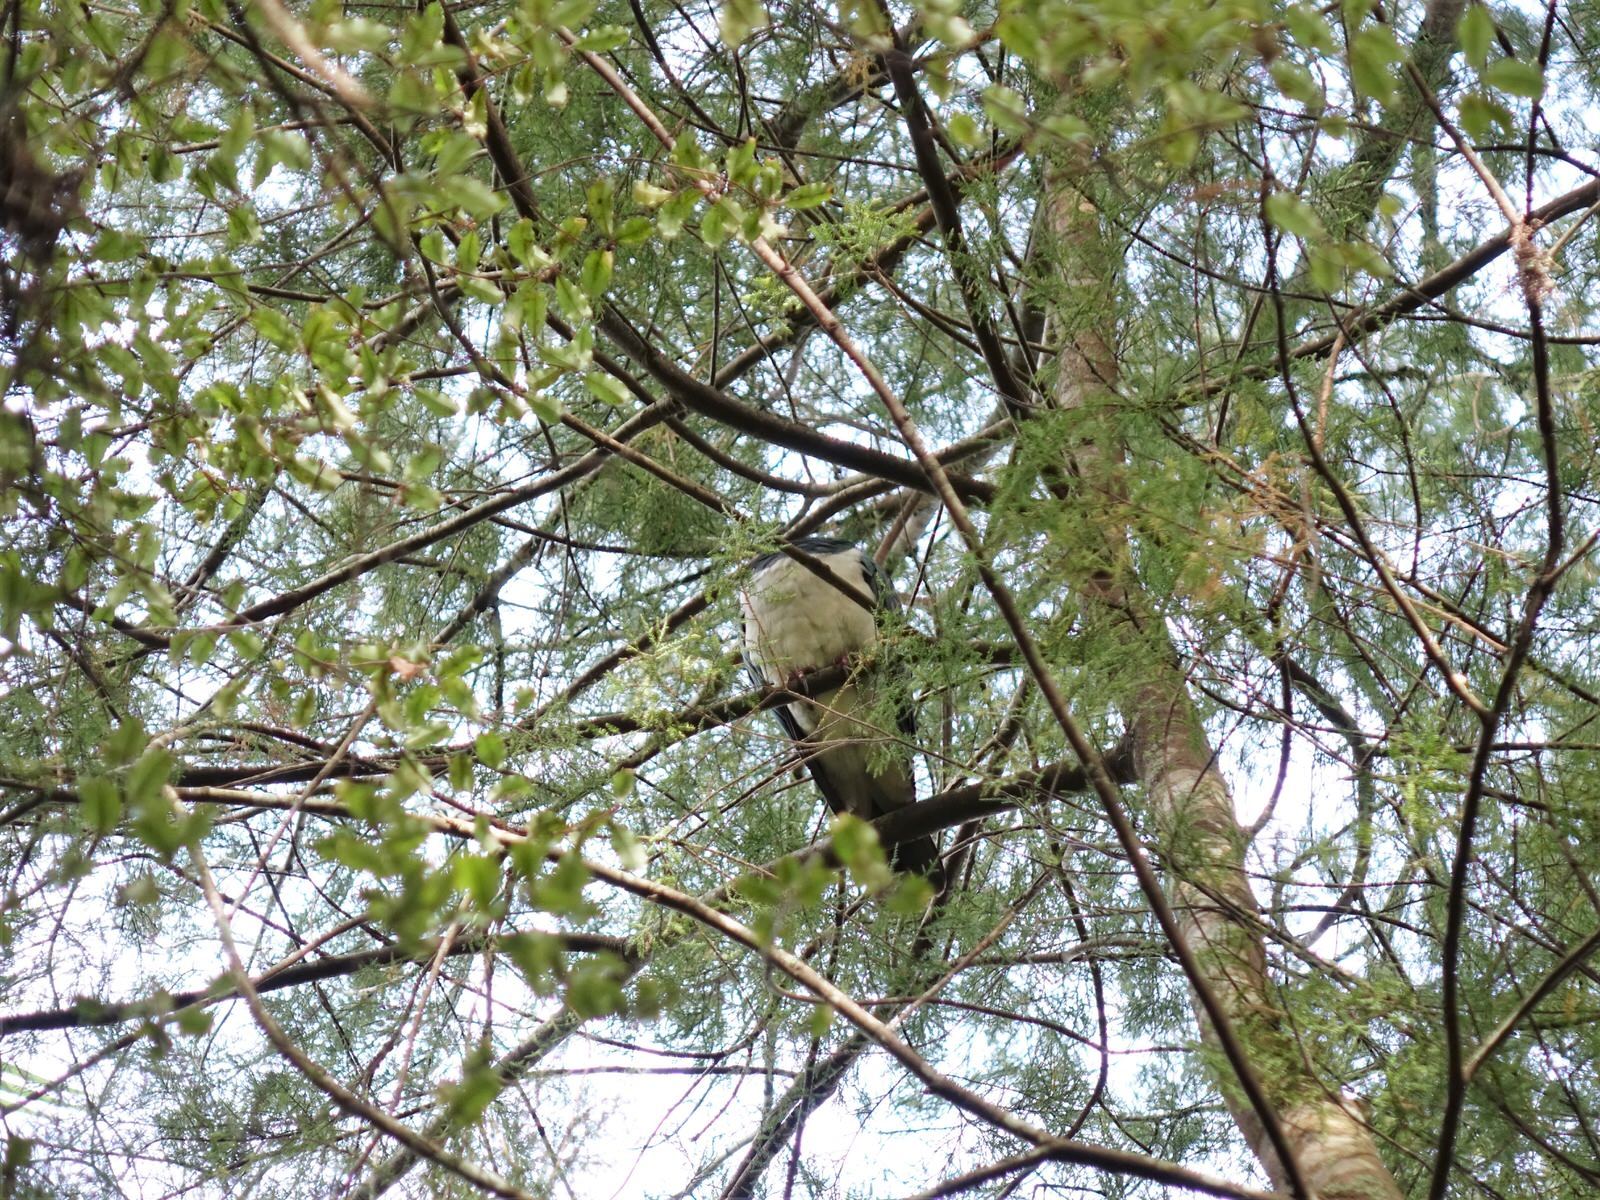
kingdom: Animalia
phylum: Chordata
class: Aves
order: Columbiformes
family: Columbidae
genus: Hemiphaga
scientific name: Hemiphaga novaeseelandiae
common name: New zealand pigeon
